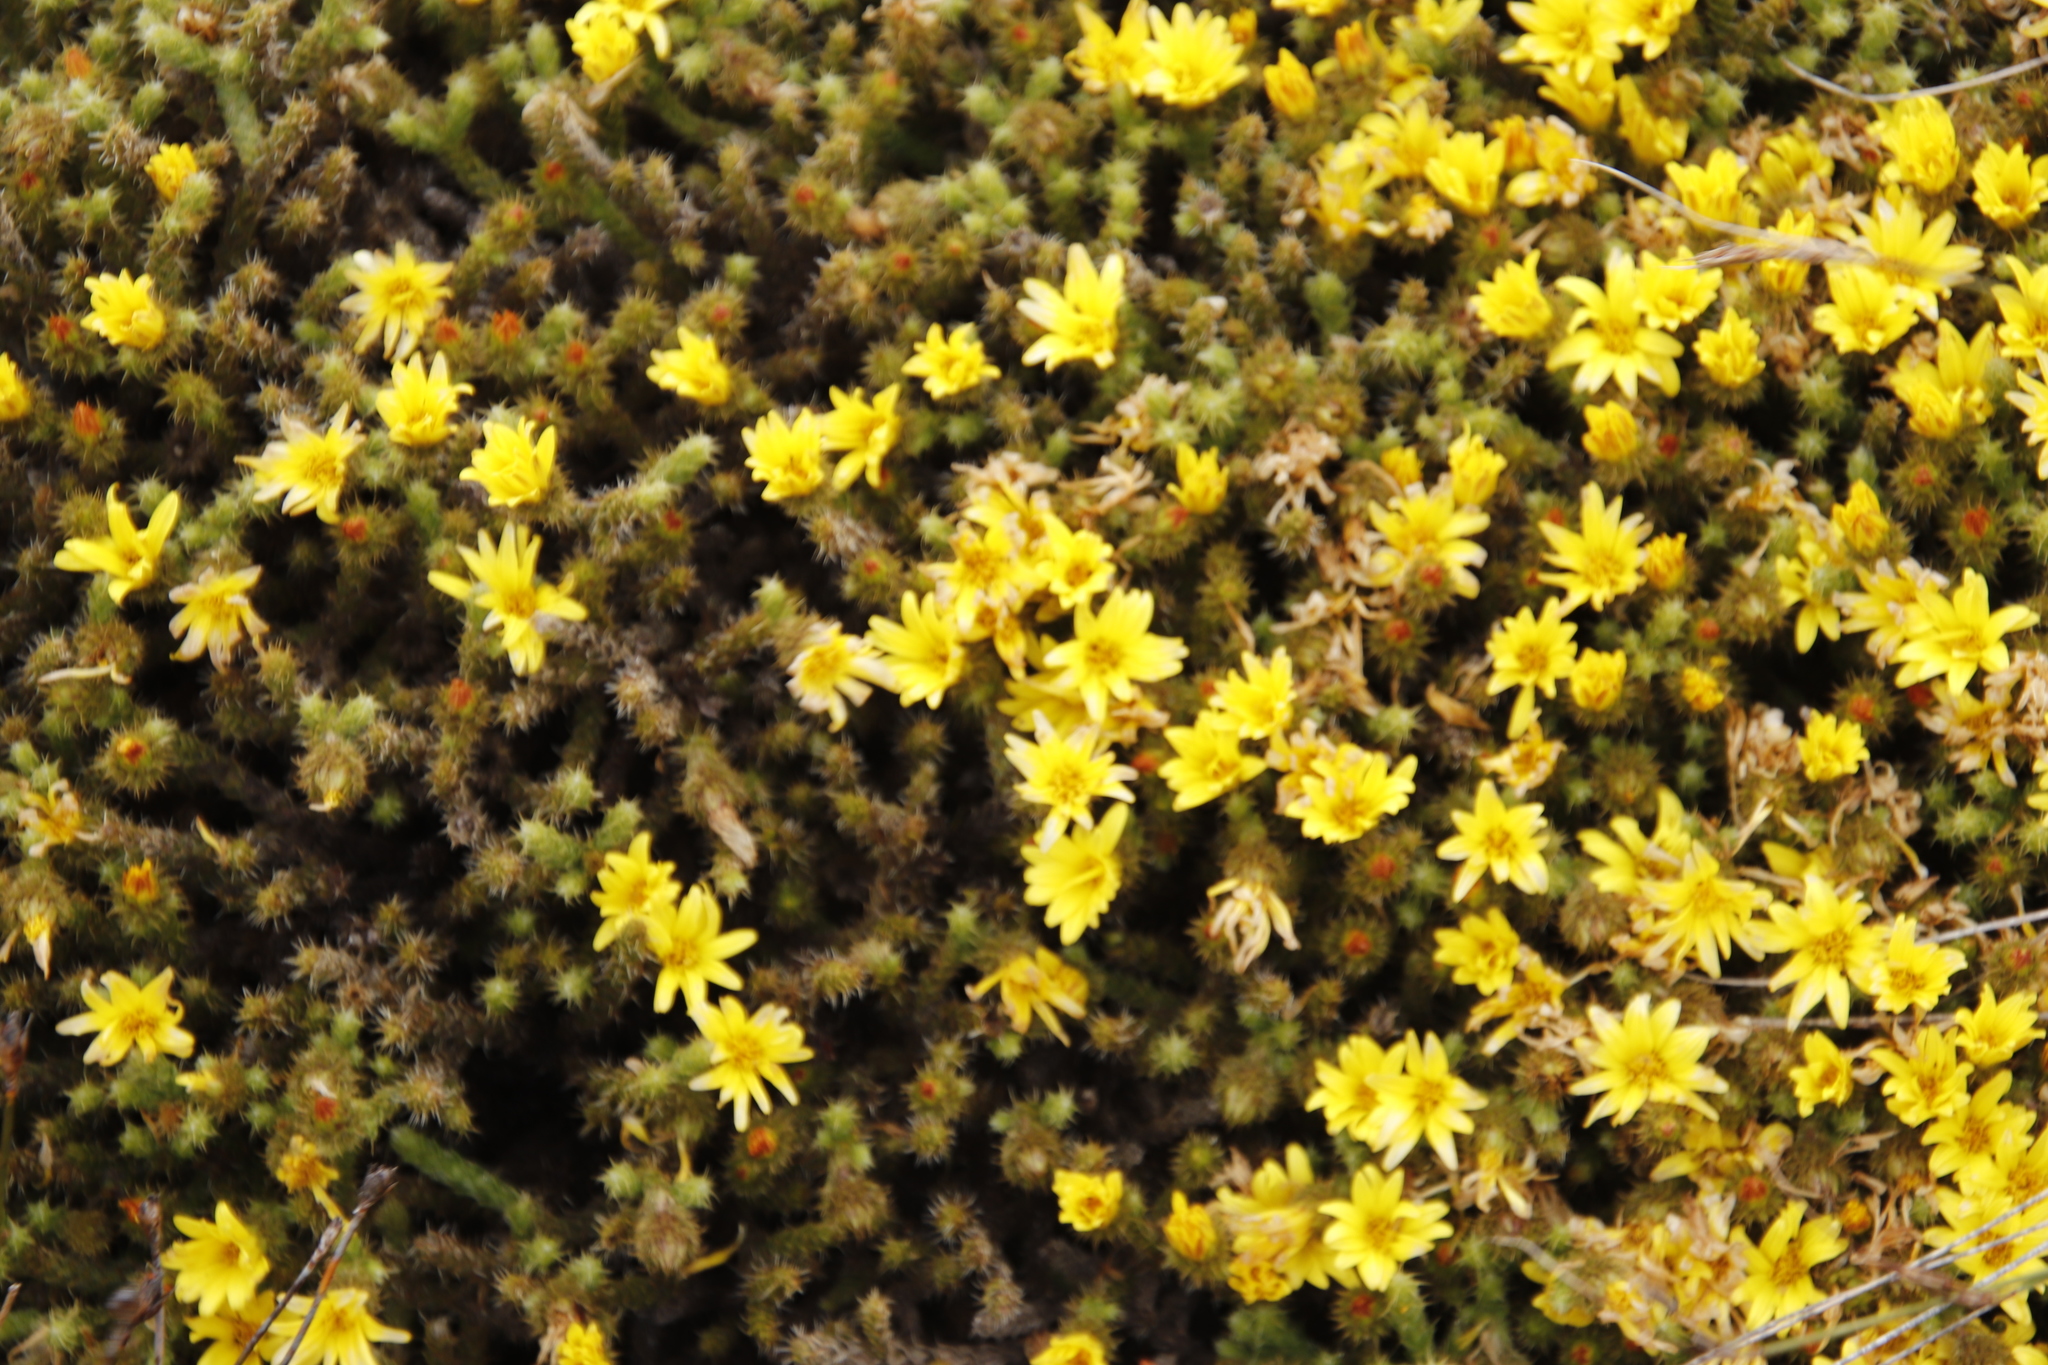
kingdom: Plantae
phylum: Tracheophyta
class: Magnoliopsida
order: Asterales
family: Asteraceae
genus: Cullumia
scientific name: Cullumia reticulata
